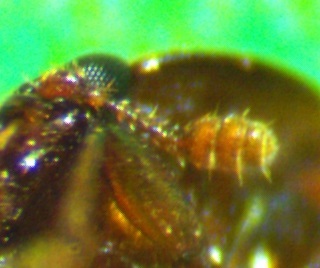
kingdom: Animalia
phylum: Arthropoda
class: Insecta
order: Coleoptera
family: Nitidulidae
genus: Colopterus
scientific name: Colopterus truncatus
